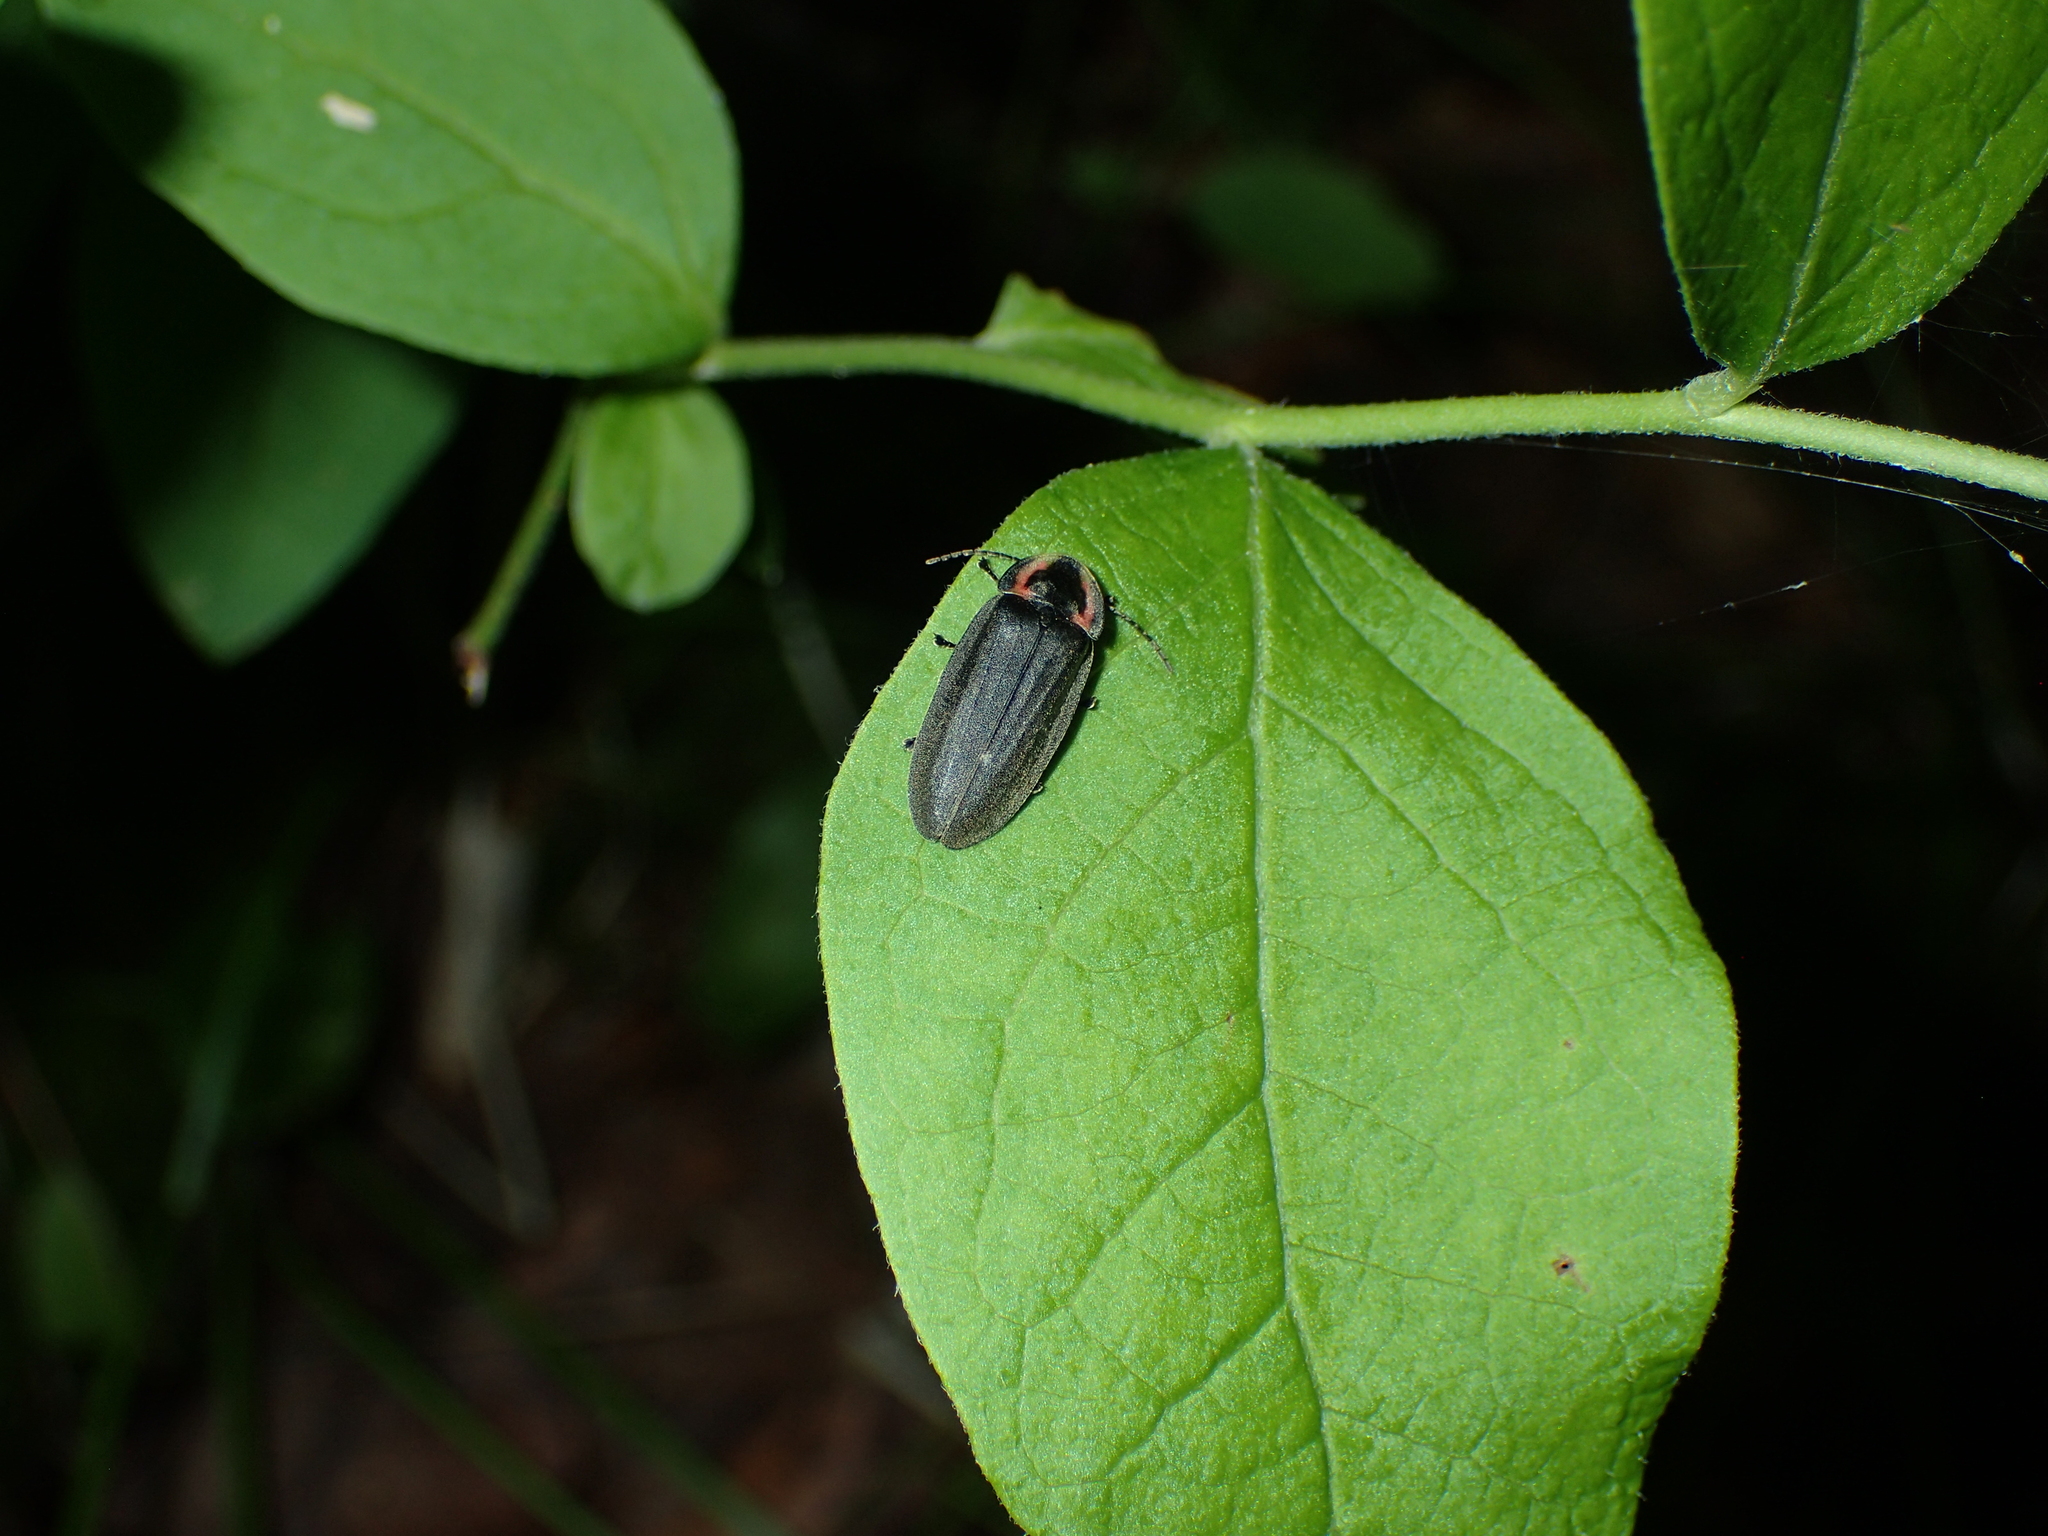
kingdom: Animalia
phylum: Arthropoda
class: Insecta
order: Coleoptera
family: Lampyridae
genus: Photinus
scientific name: Photinus corrusca
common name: Winter firefly
